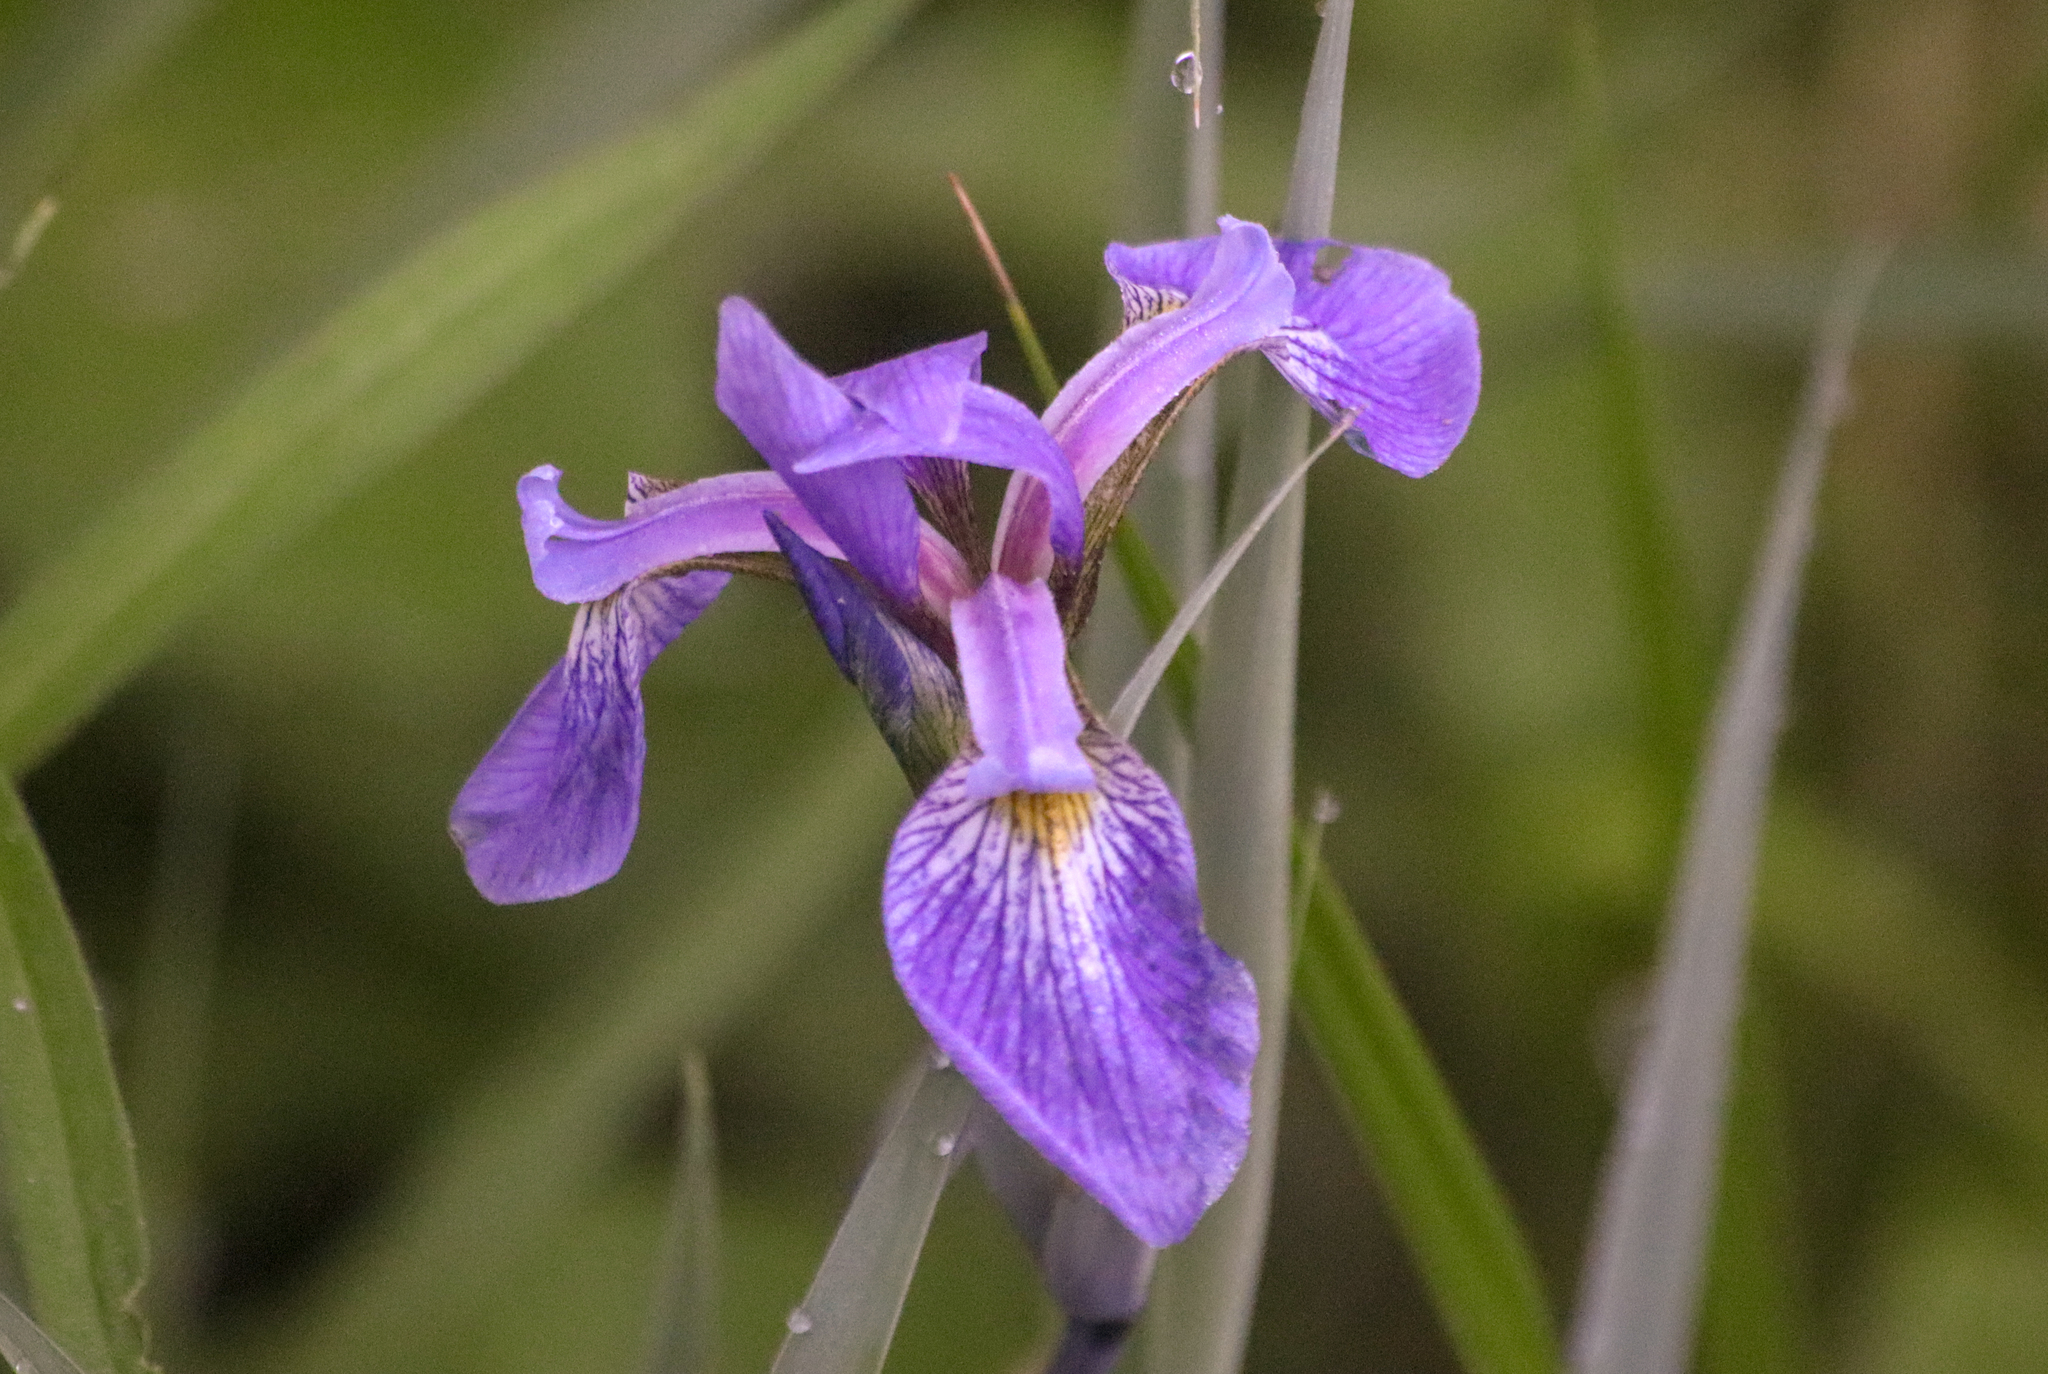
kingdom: Plantae
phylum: Tracheophyta
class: Liliopsida
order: Asparagales
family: Iridaceae
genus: Iris
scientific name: Iris versicolor
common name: Purple iris
